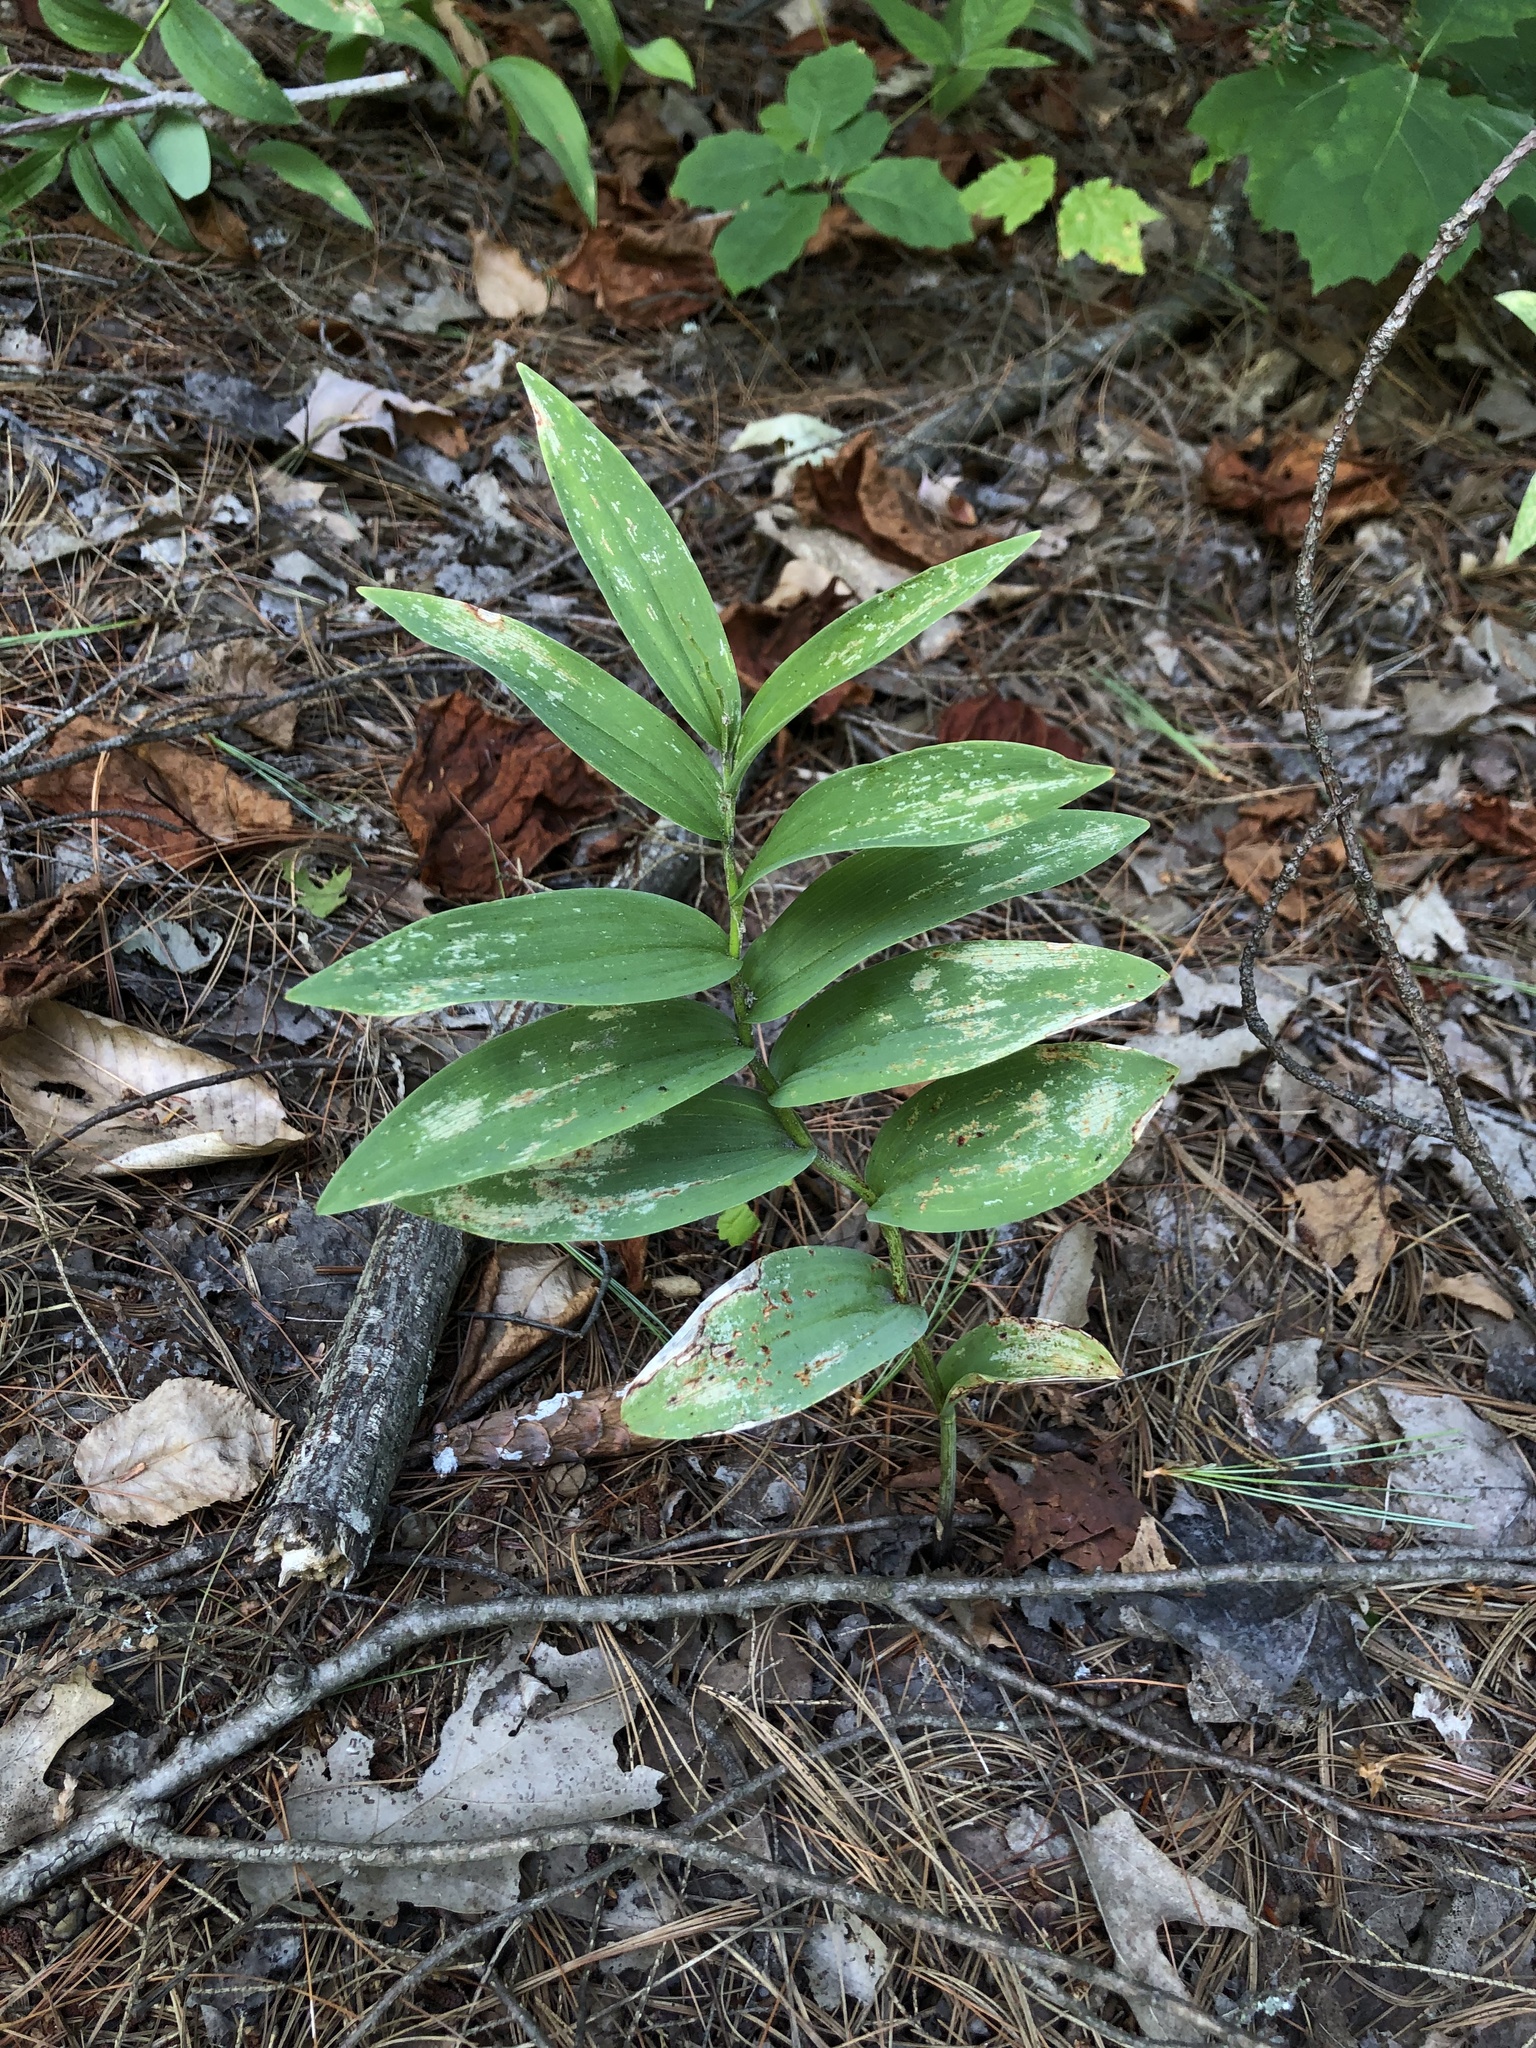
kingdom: Plantae
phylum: Tracheophyta
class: Liliopsida
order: Asparagales
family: Asparagaceae
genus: Maianthemum
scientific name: Maianthemum stellatum
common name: Little false solomon's seal
